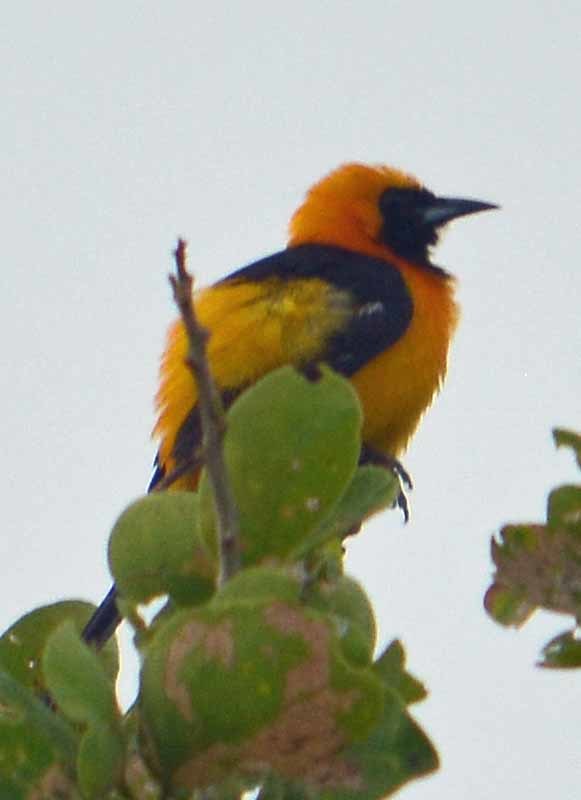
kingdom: Animalia
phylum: Chordata
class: Aves
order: Passeriformes
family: Icteridae
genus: Icterus
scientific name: Icterus cucullatus
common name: Hooded oriole
